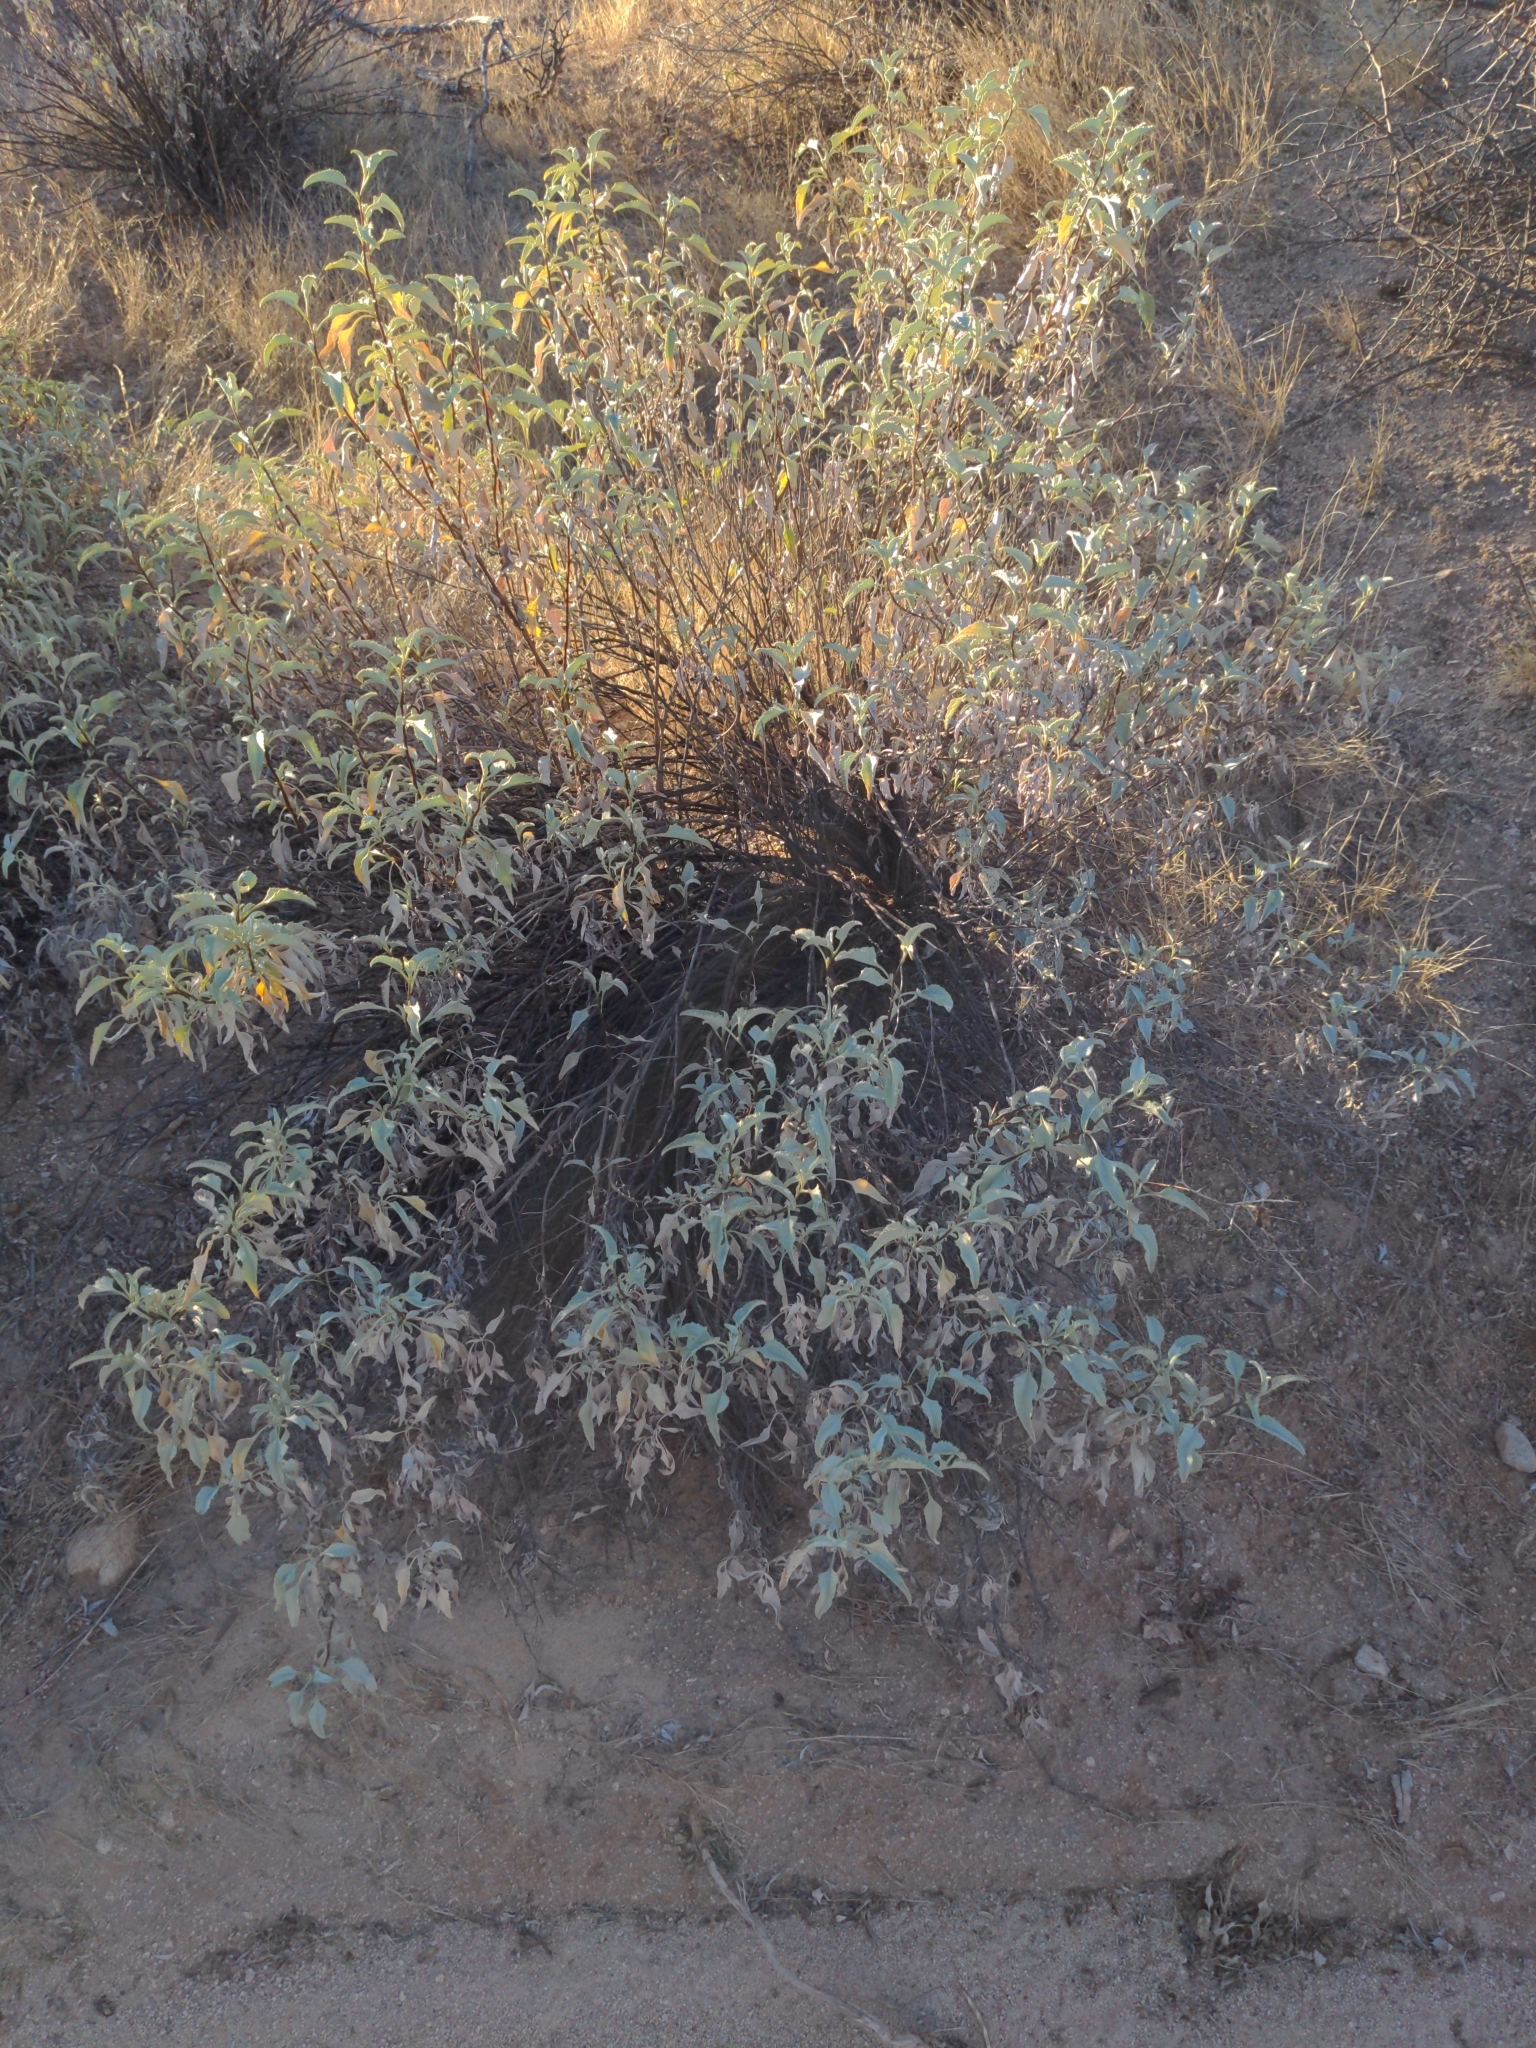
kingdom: Plantae
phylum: Tracheophyta
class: Magnoliopsida
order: Asterales
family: Asteraceae
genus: Encelia
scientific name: Encelia farinosa
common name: Brittlebush
